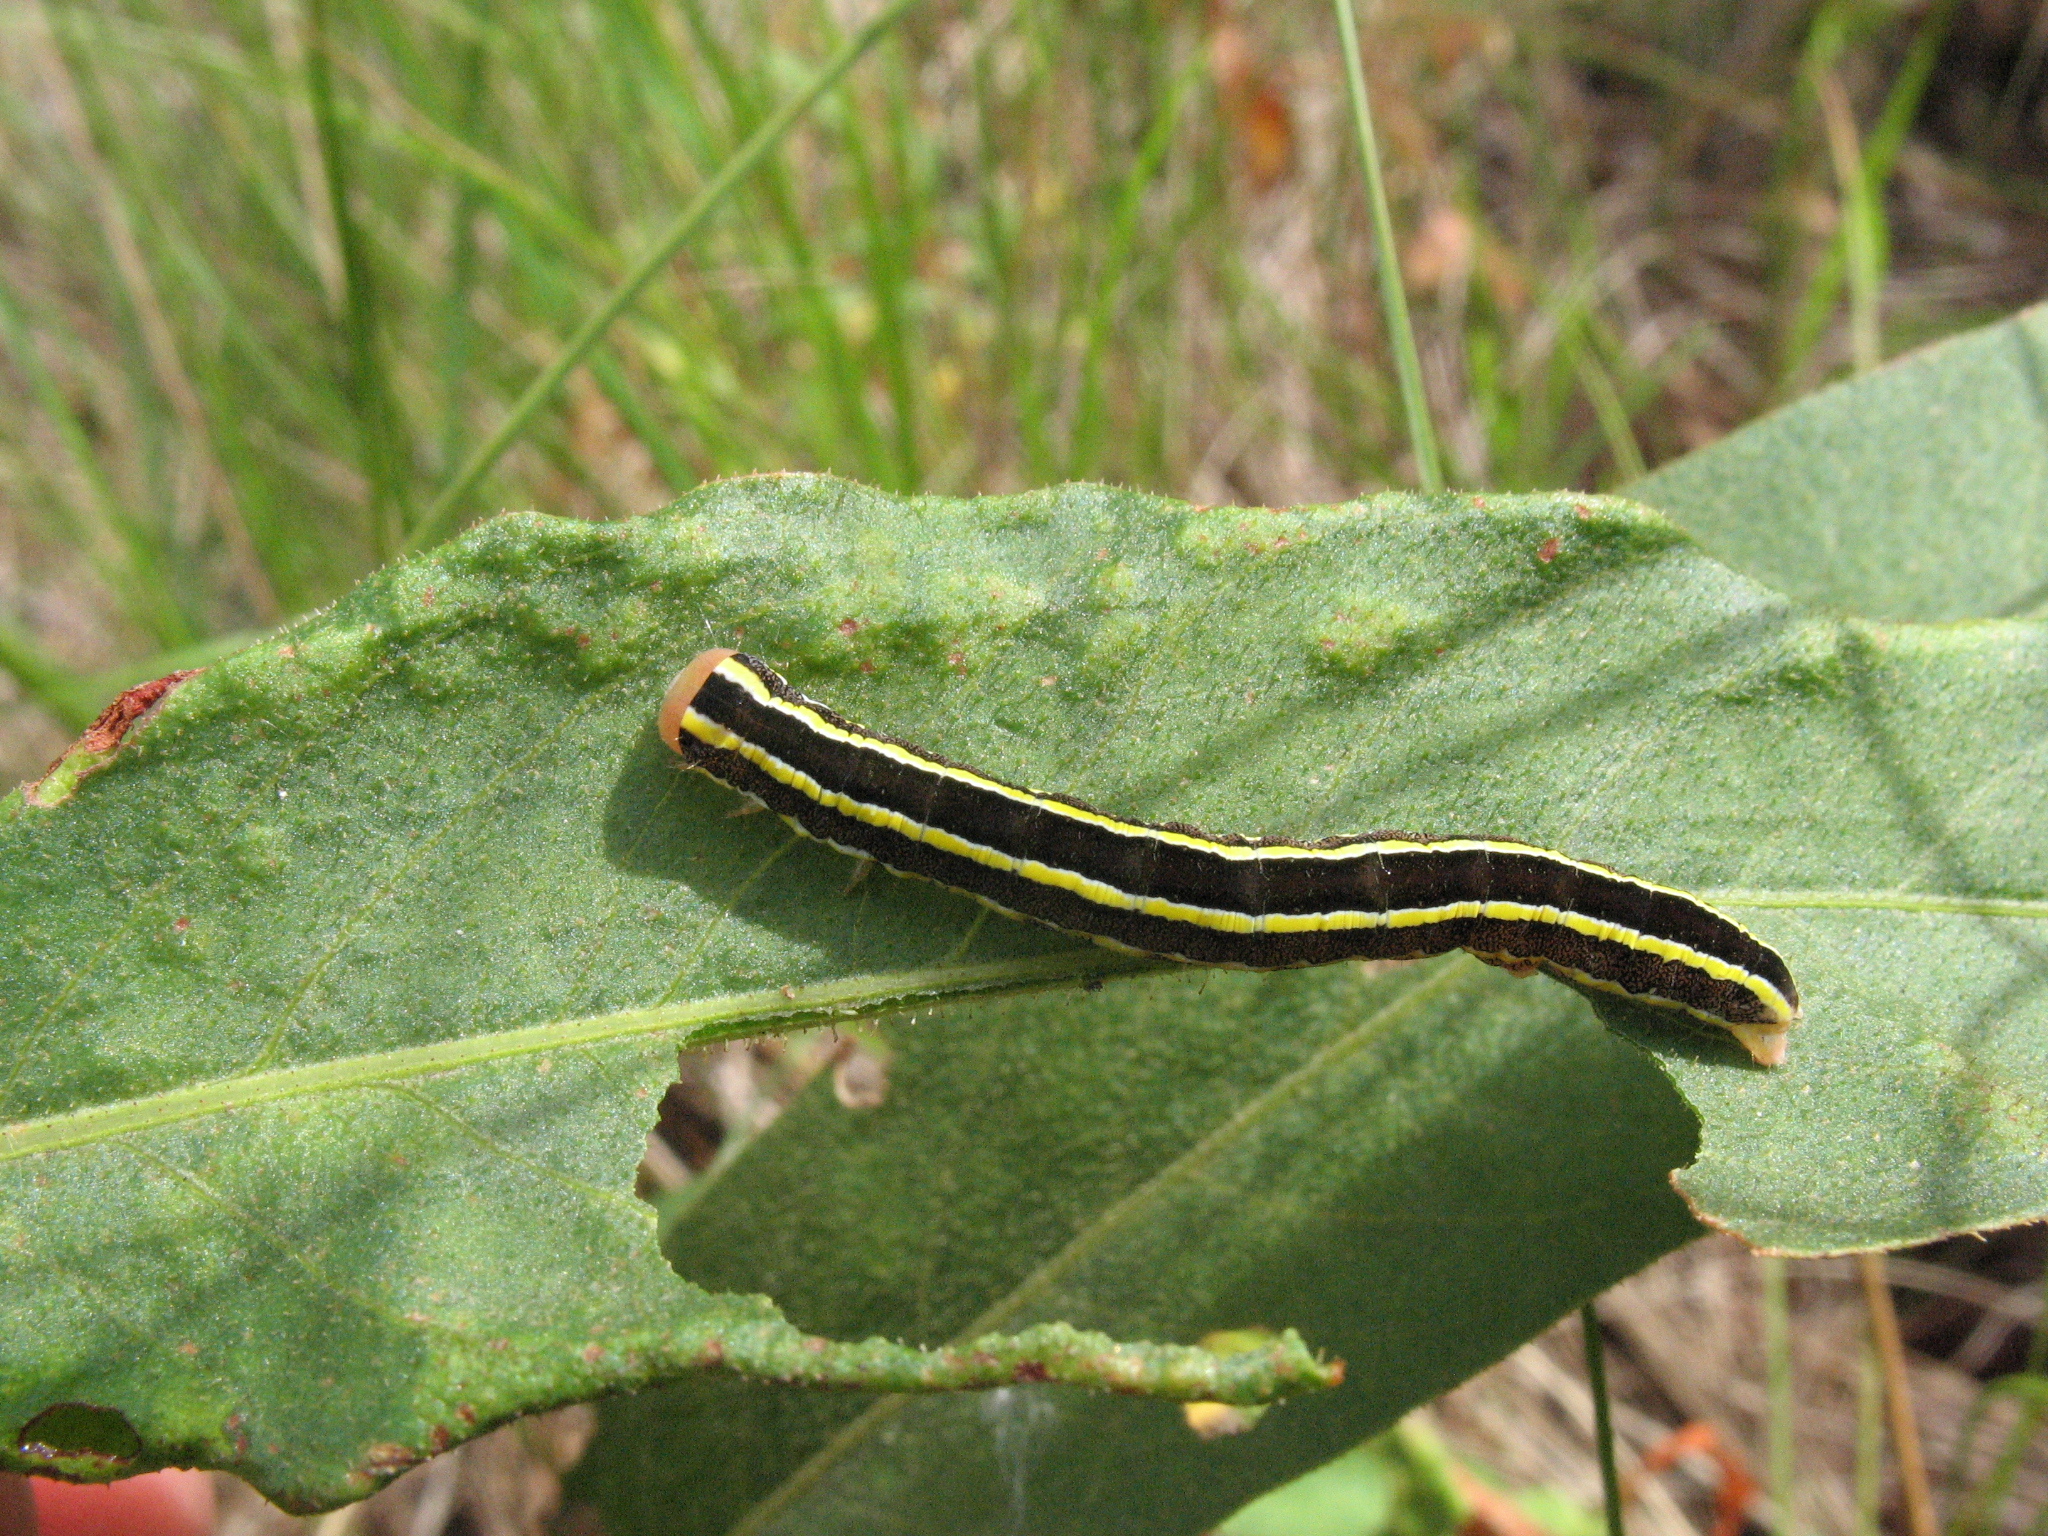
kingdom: Animalia
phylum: Arthropoda
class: Insecta
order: Lepidoptera
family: Noctuidae
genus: Ceramica
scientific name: Ceramica pisi
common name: Broom moth
